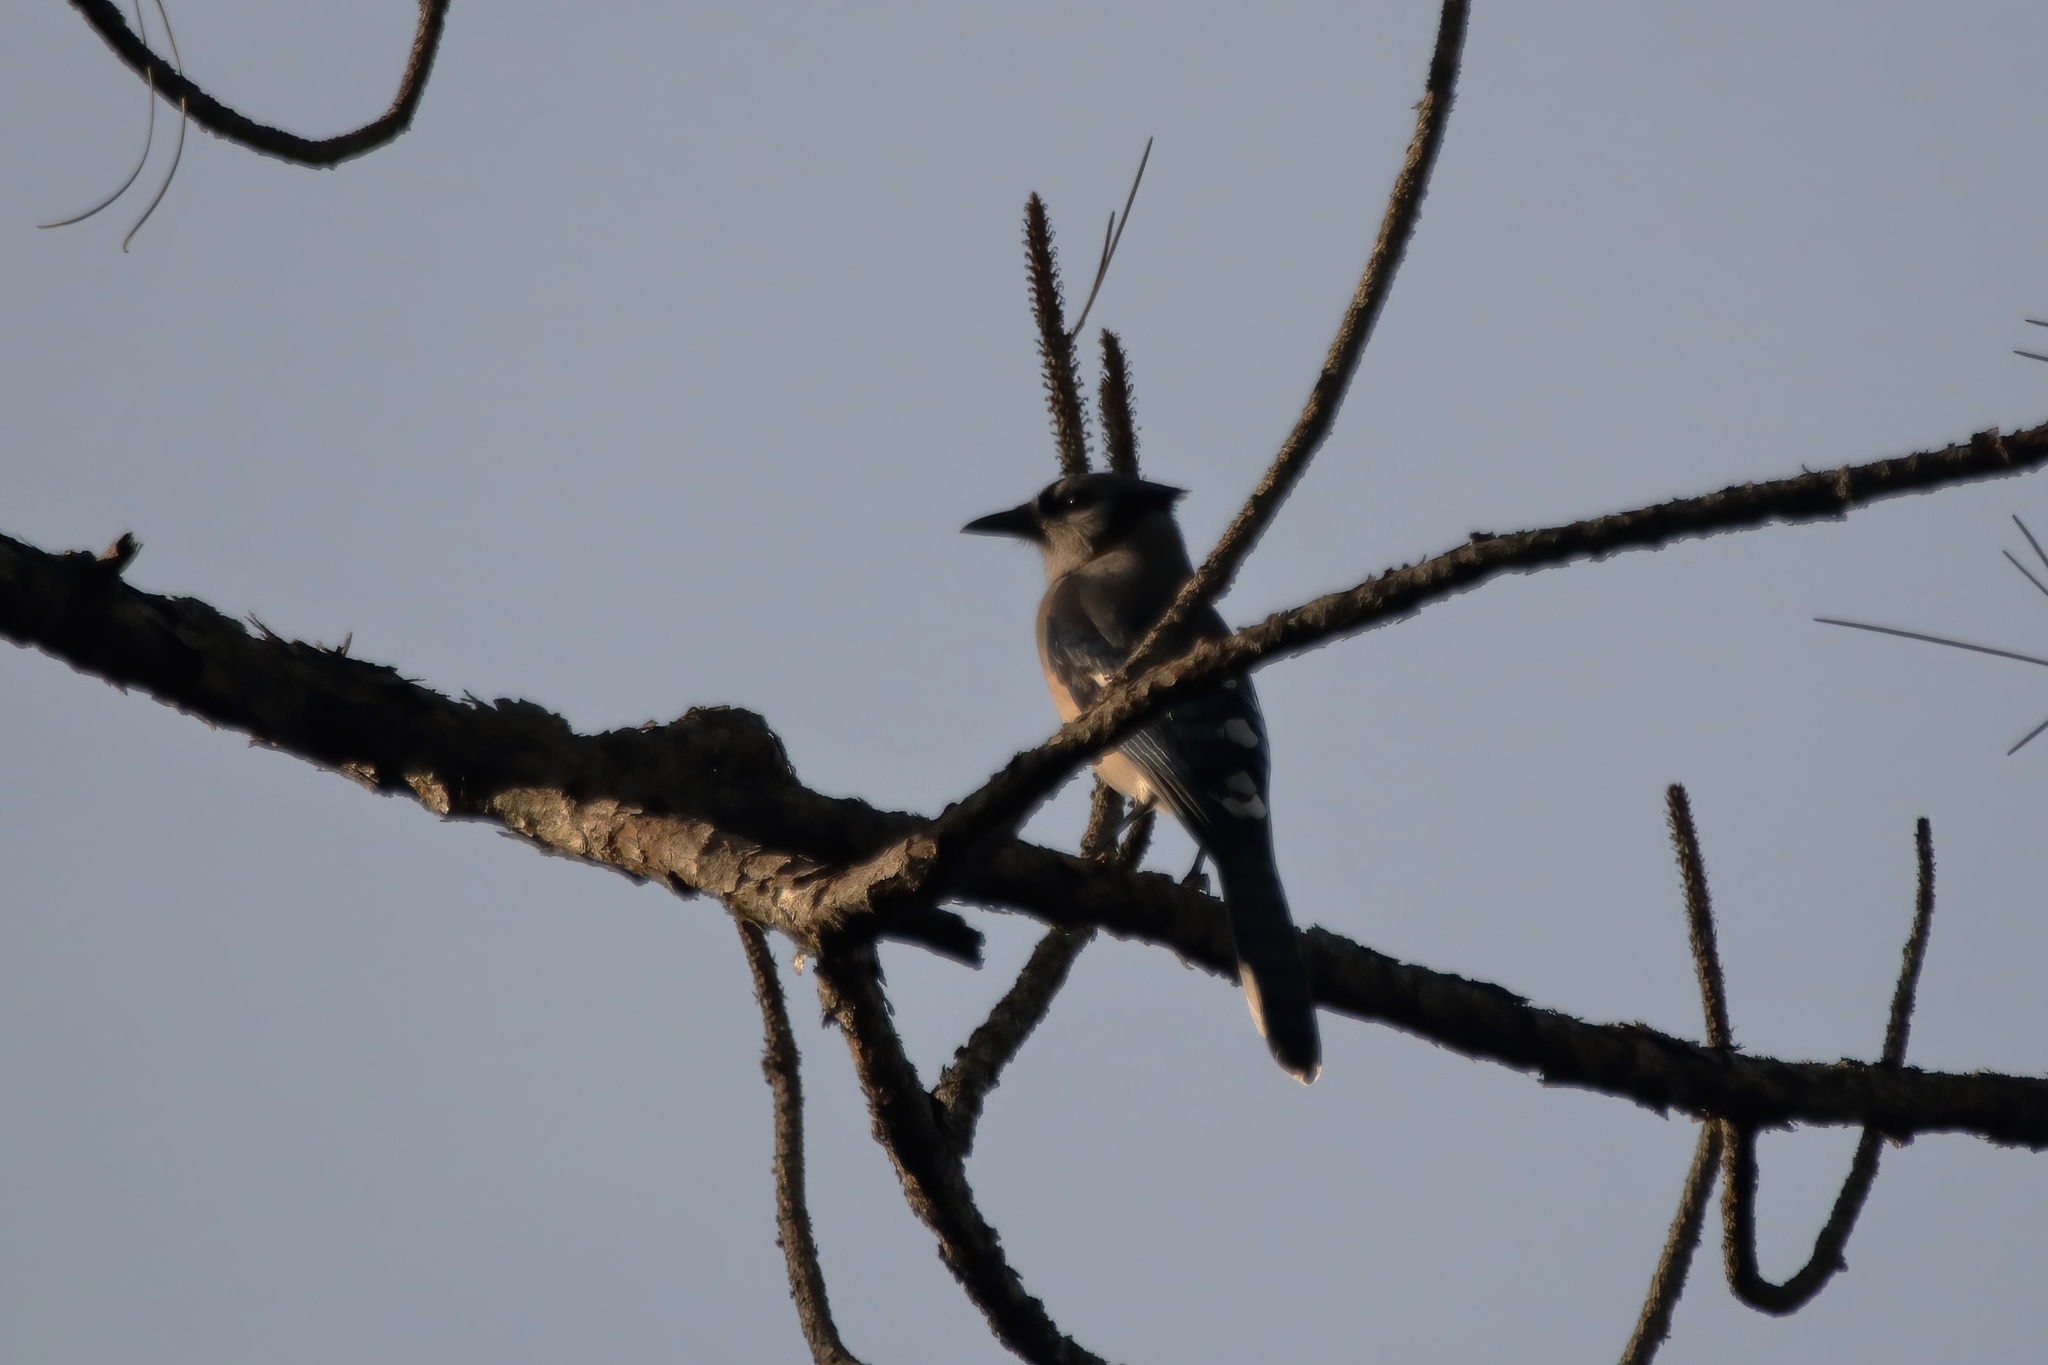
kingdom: Animalia
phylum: Chordata
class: Aves
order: Passeriformes
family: Corvidae
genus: Cyanocitta
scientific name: Cyanocitta cristata
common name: Blue jay
